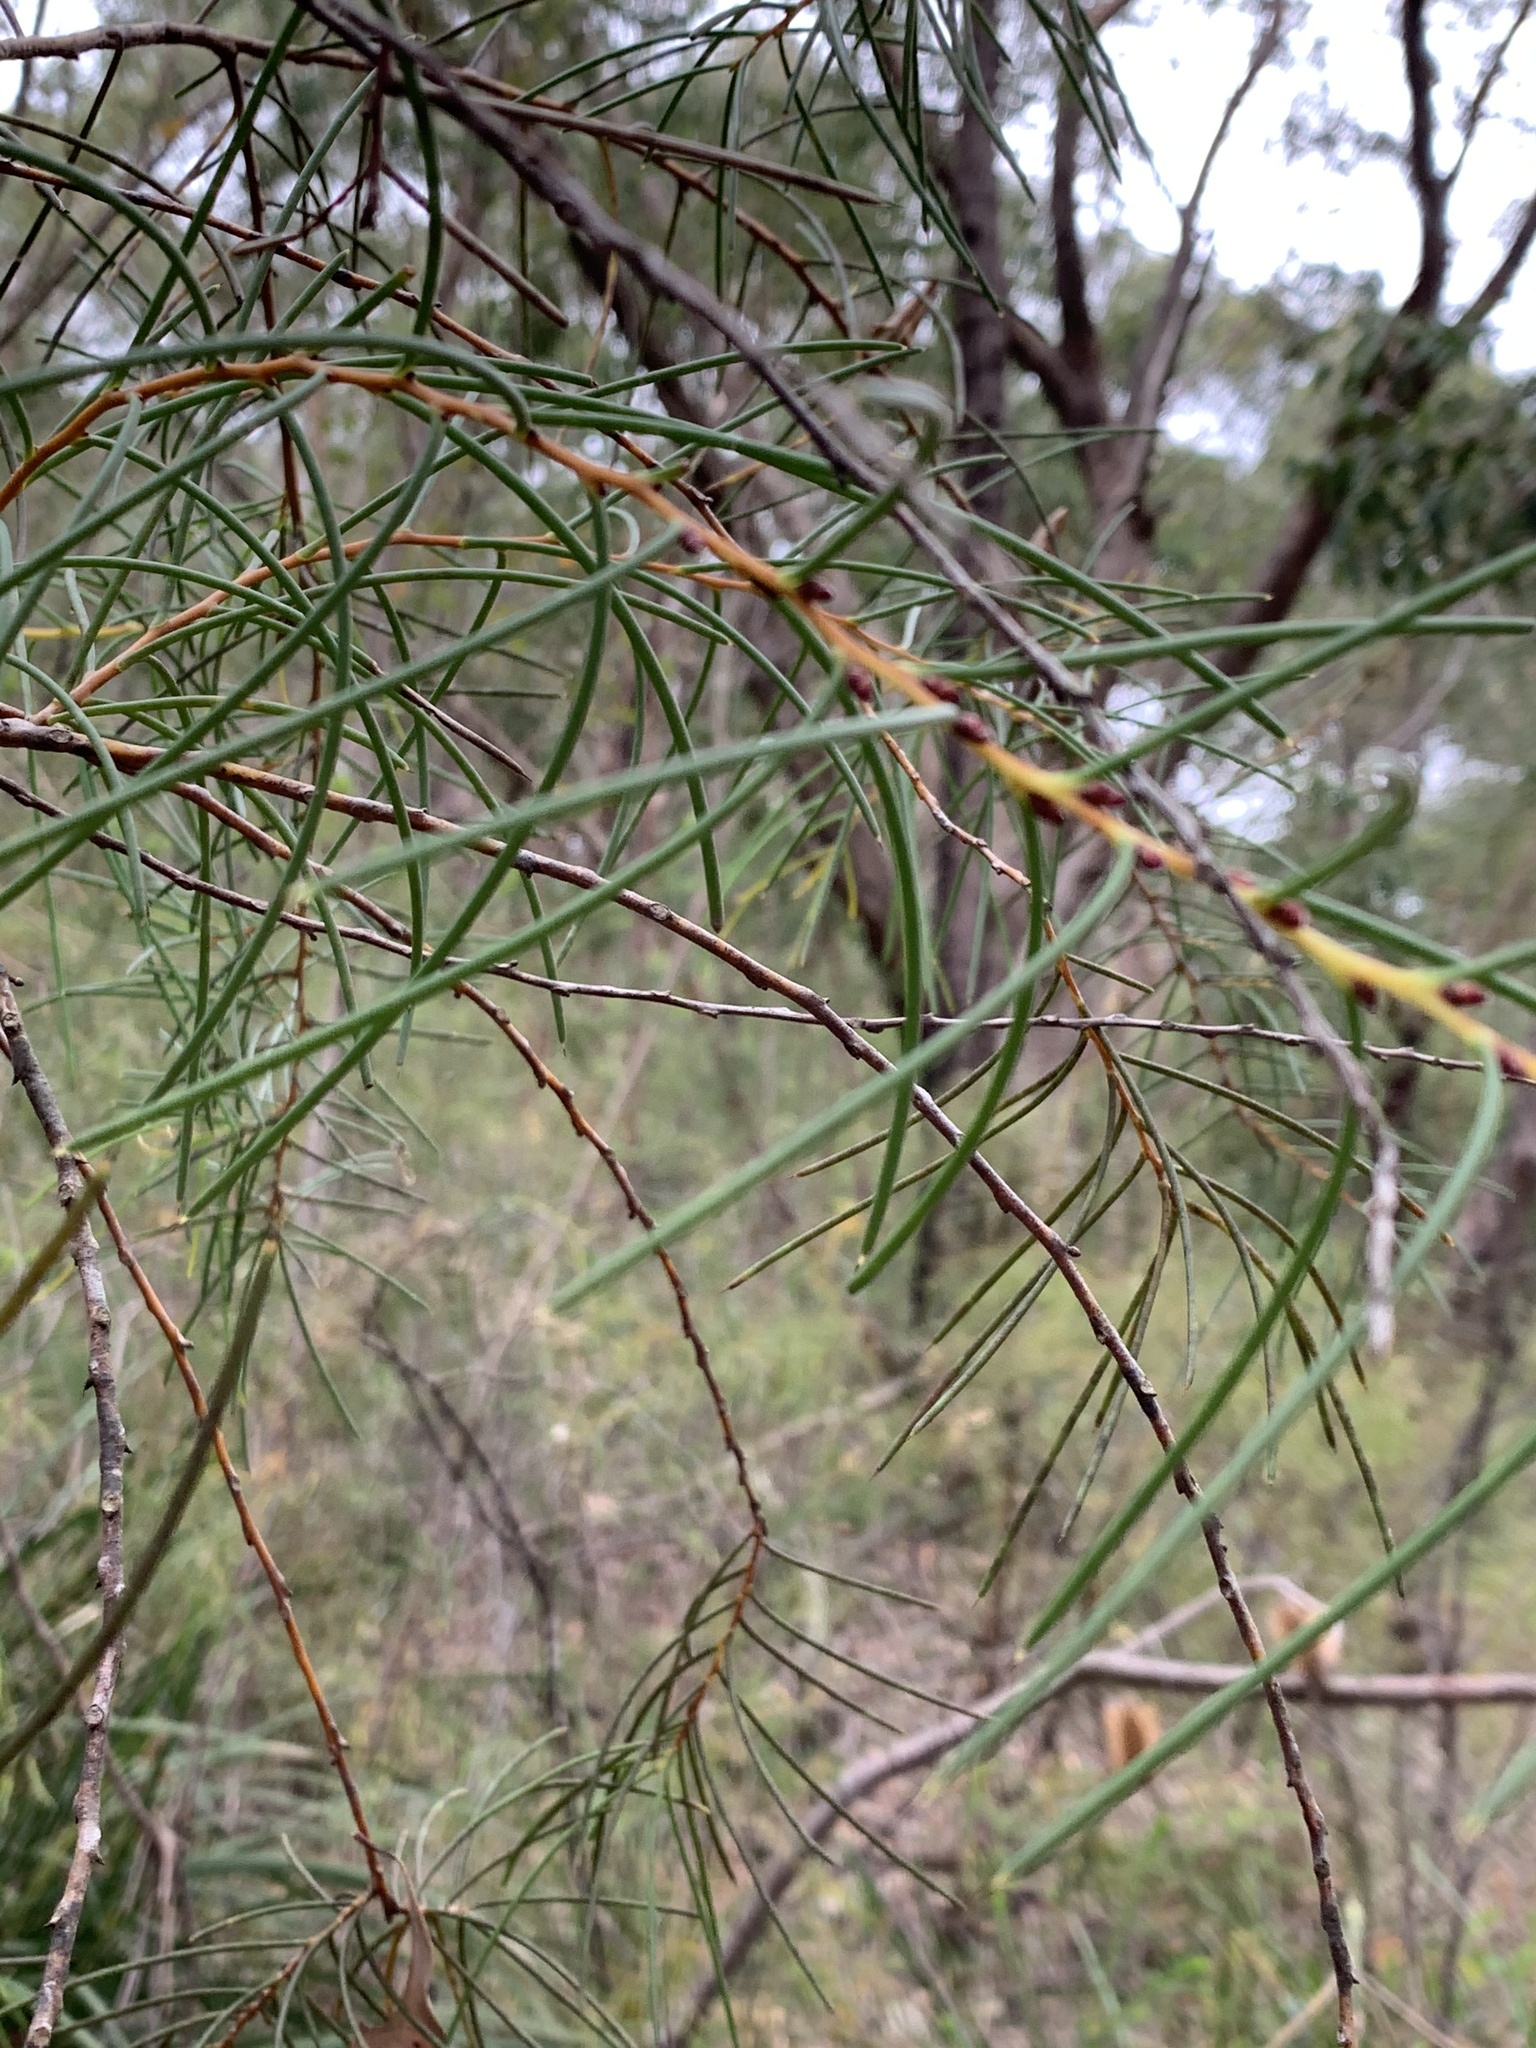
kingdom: Plantae
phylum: Tracheophyta
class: Magnoliopsida
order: Proteales
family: Proteaceae
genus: Hakea
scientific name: Hakea teretifolia
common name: Dagger hakea
